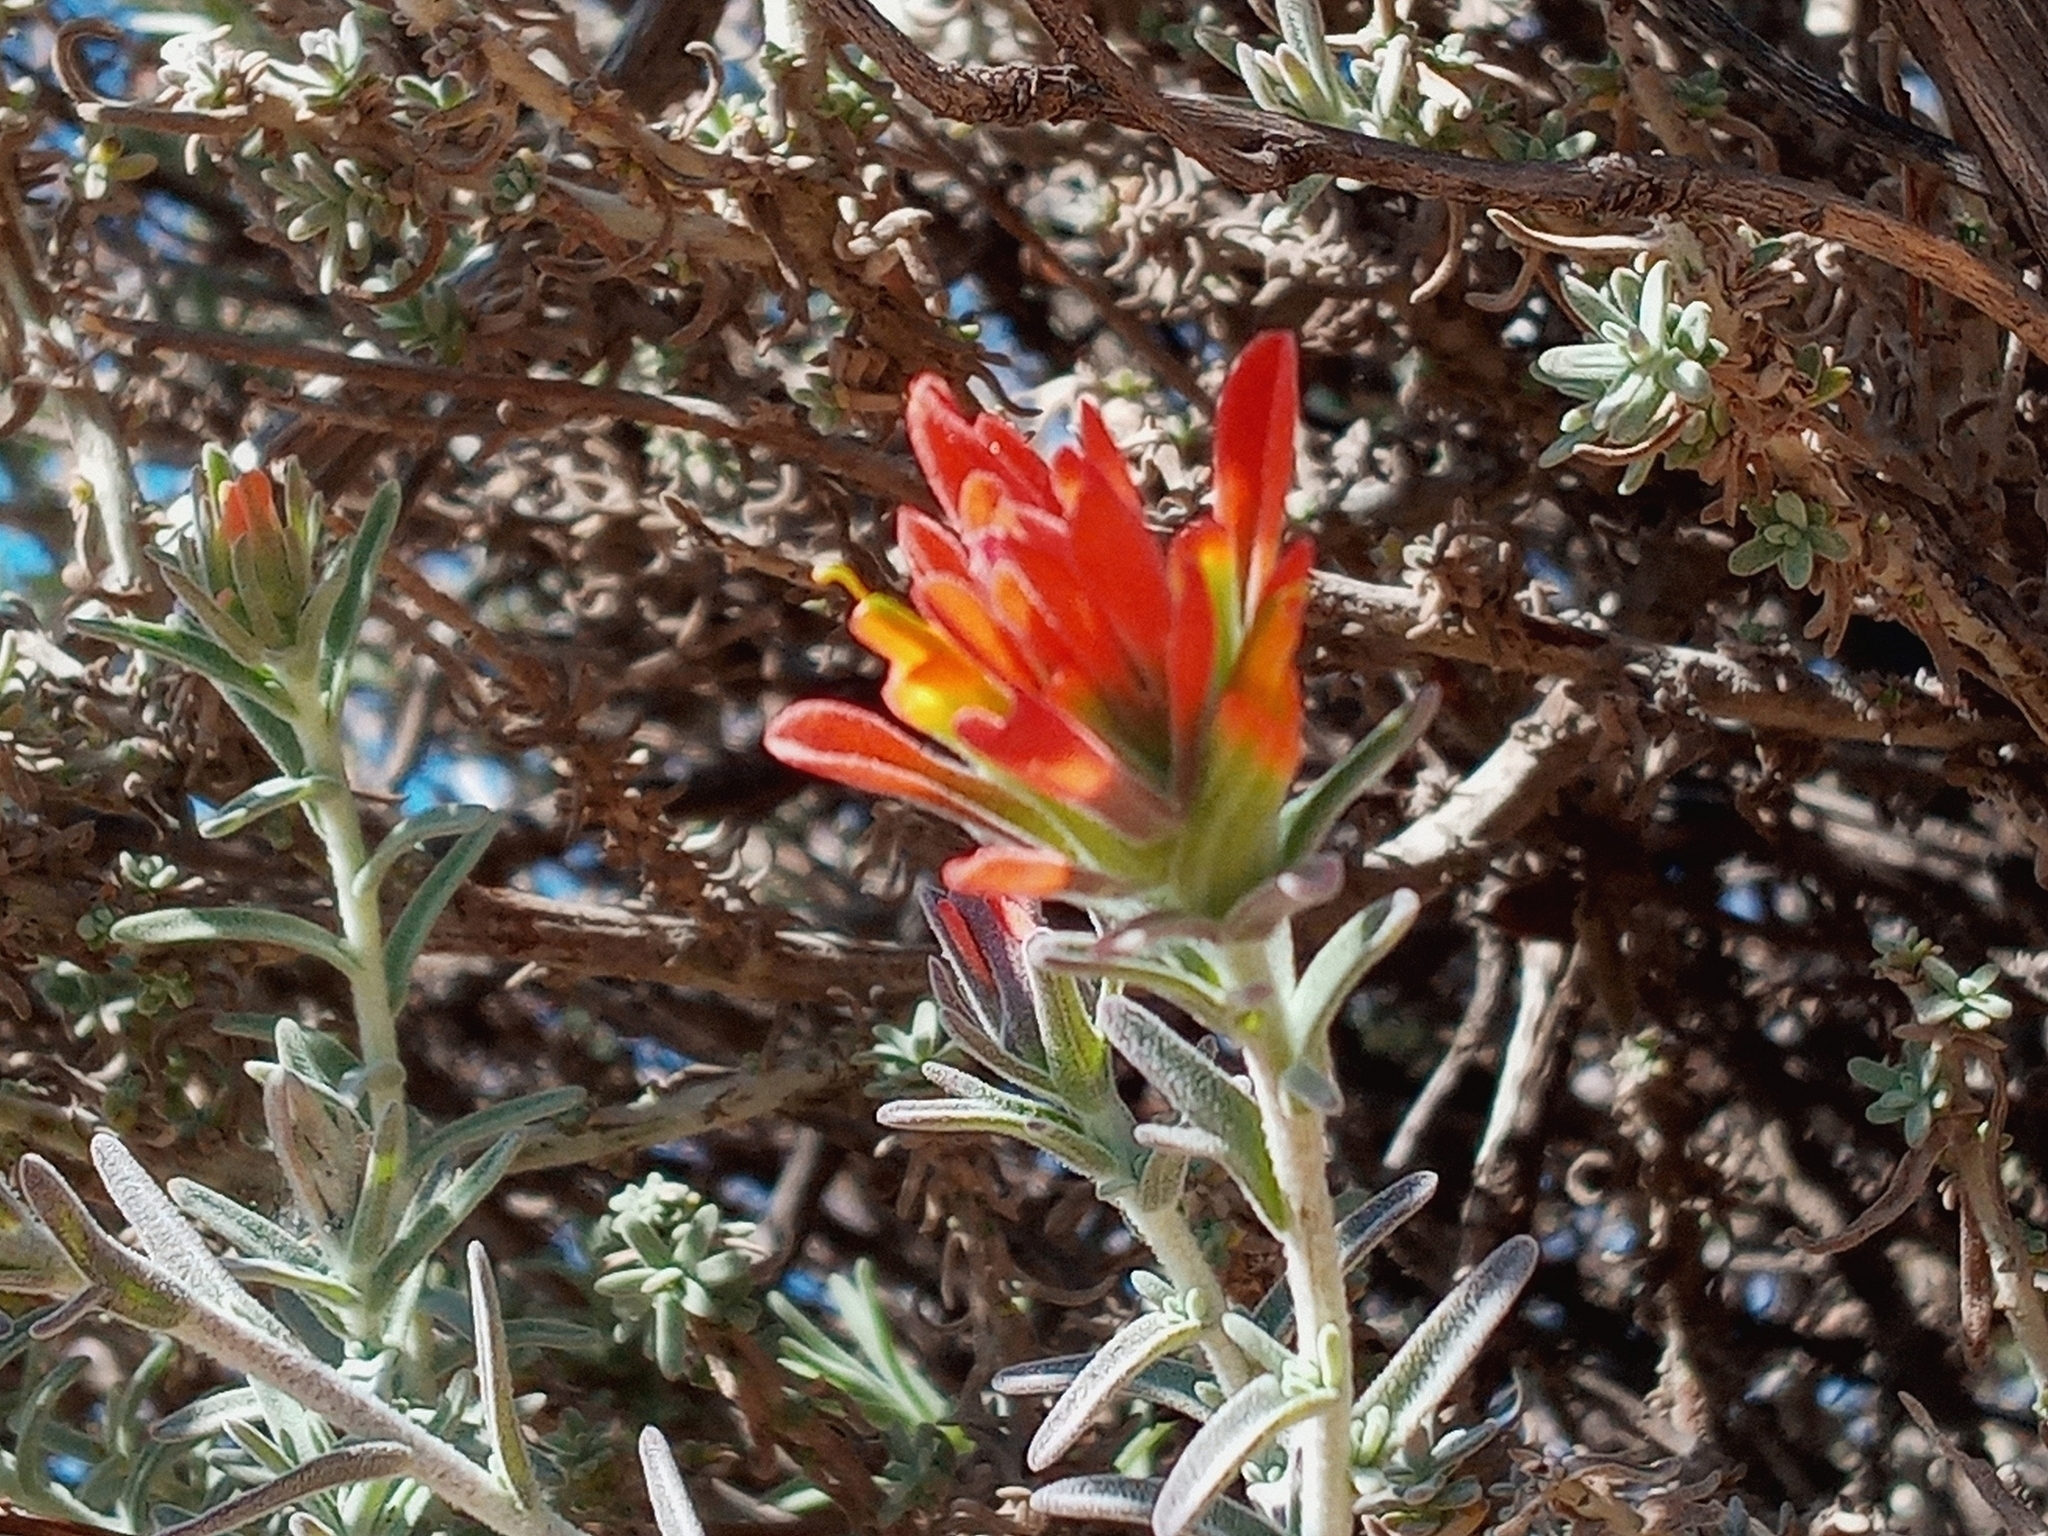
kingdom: Plantae
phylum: Tracheophyta
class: Magnoliopsida
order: Lamiales
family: Orobanchaceae
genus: Castilleja
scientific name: Castilleja foliolosa
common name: Woolly indian paintbrush
